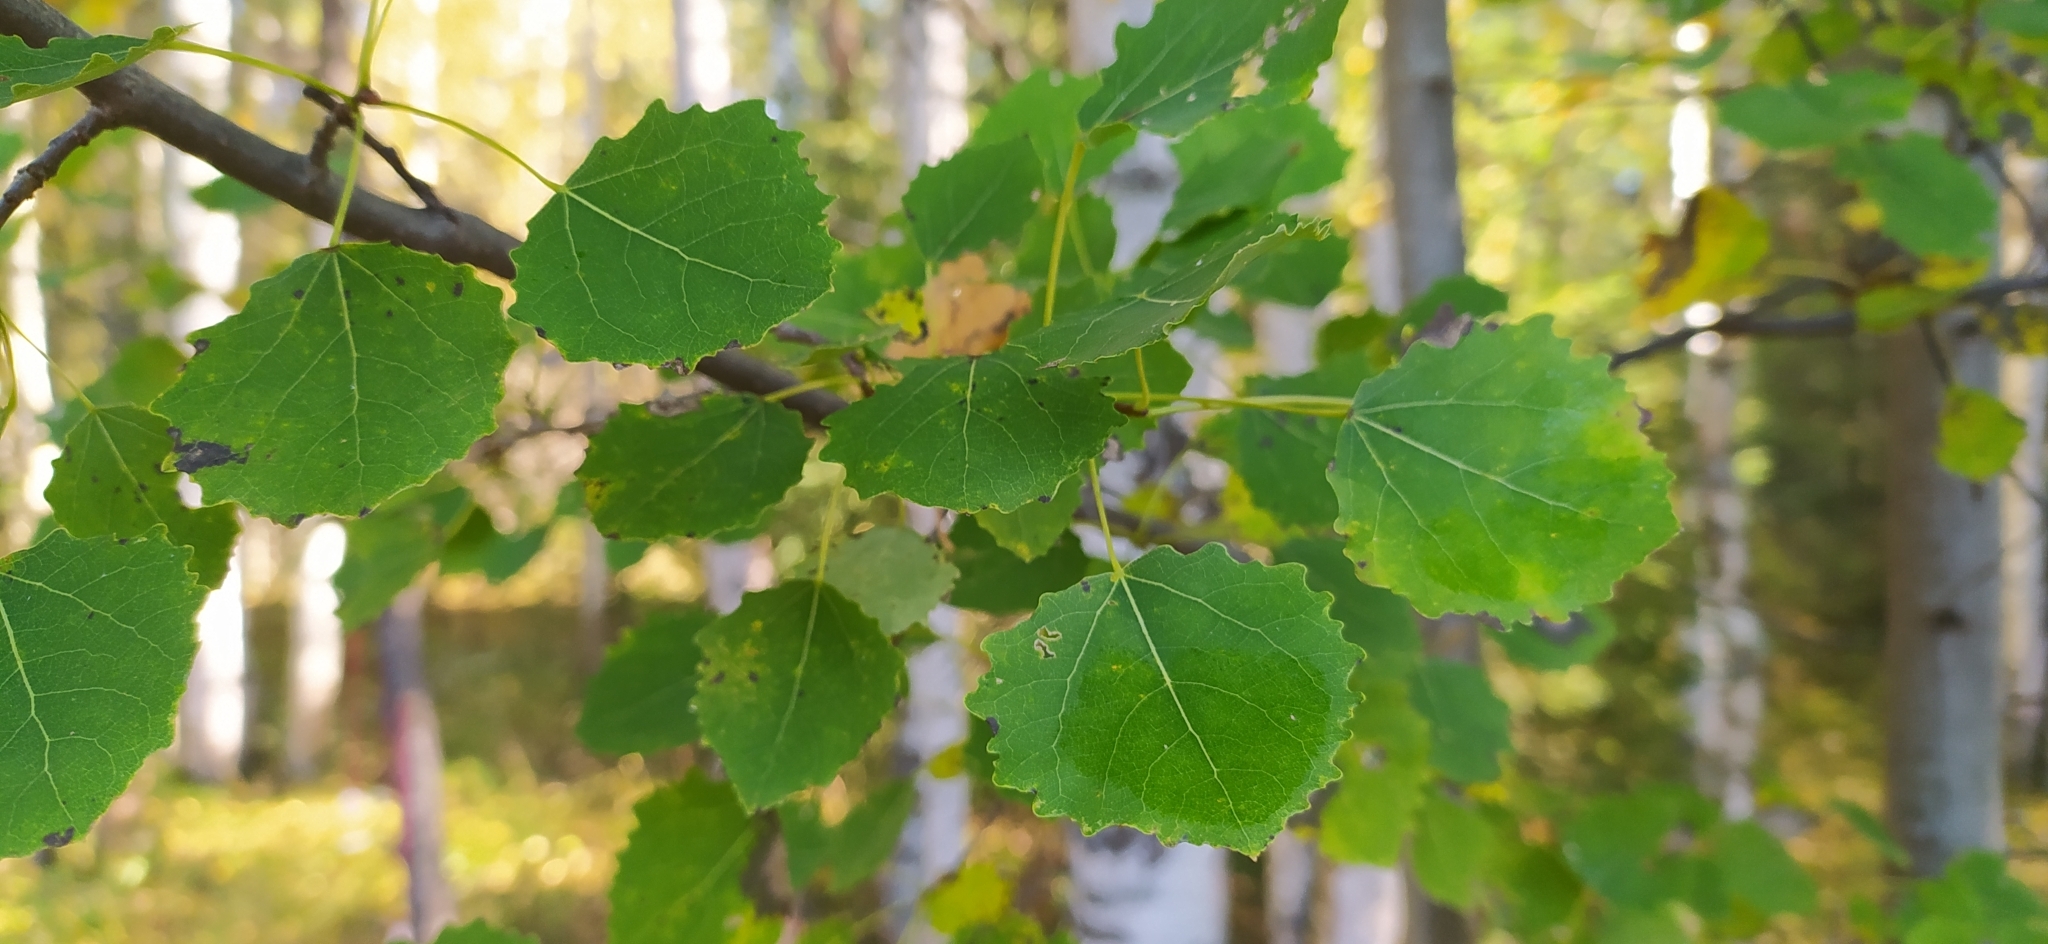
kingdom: Plantae
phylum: Tracheophyta
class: Magnoliopsida
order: Malpighiales
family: Salicaceae
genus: Populus
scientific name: Populus tremula
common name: European aspen
